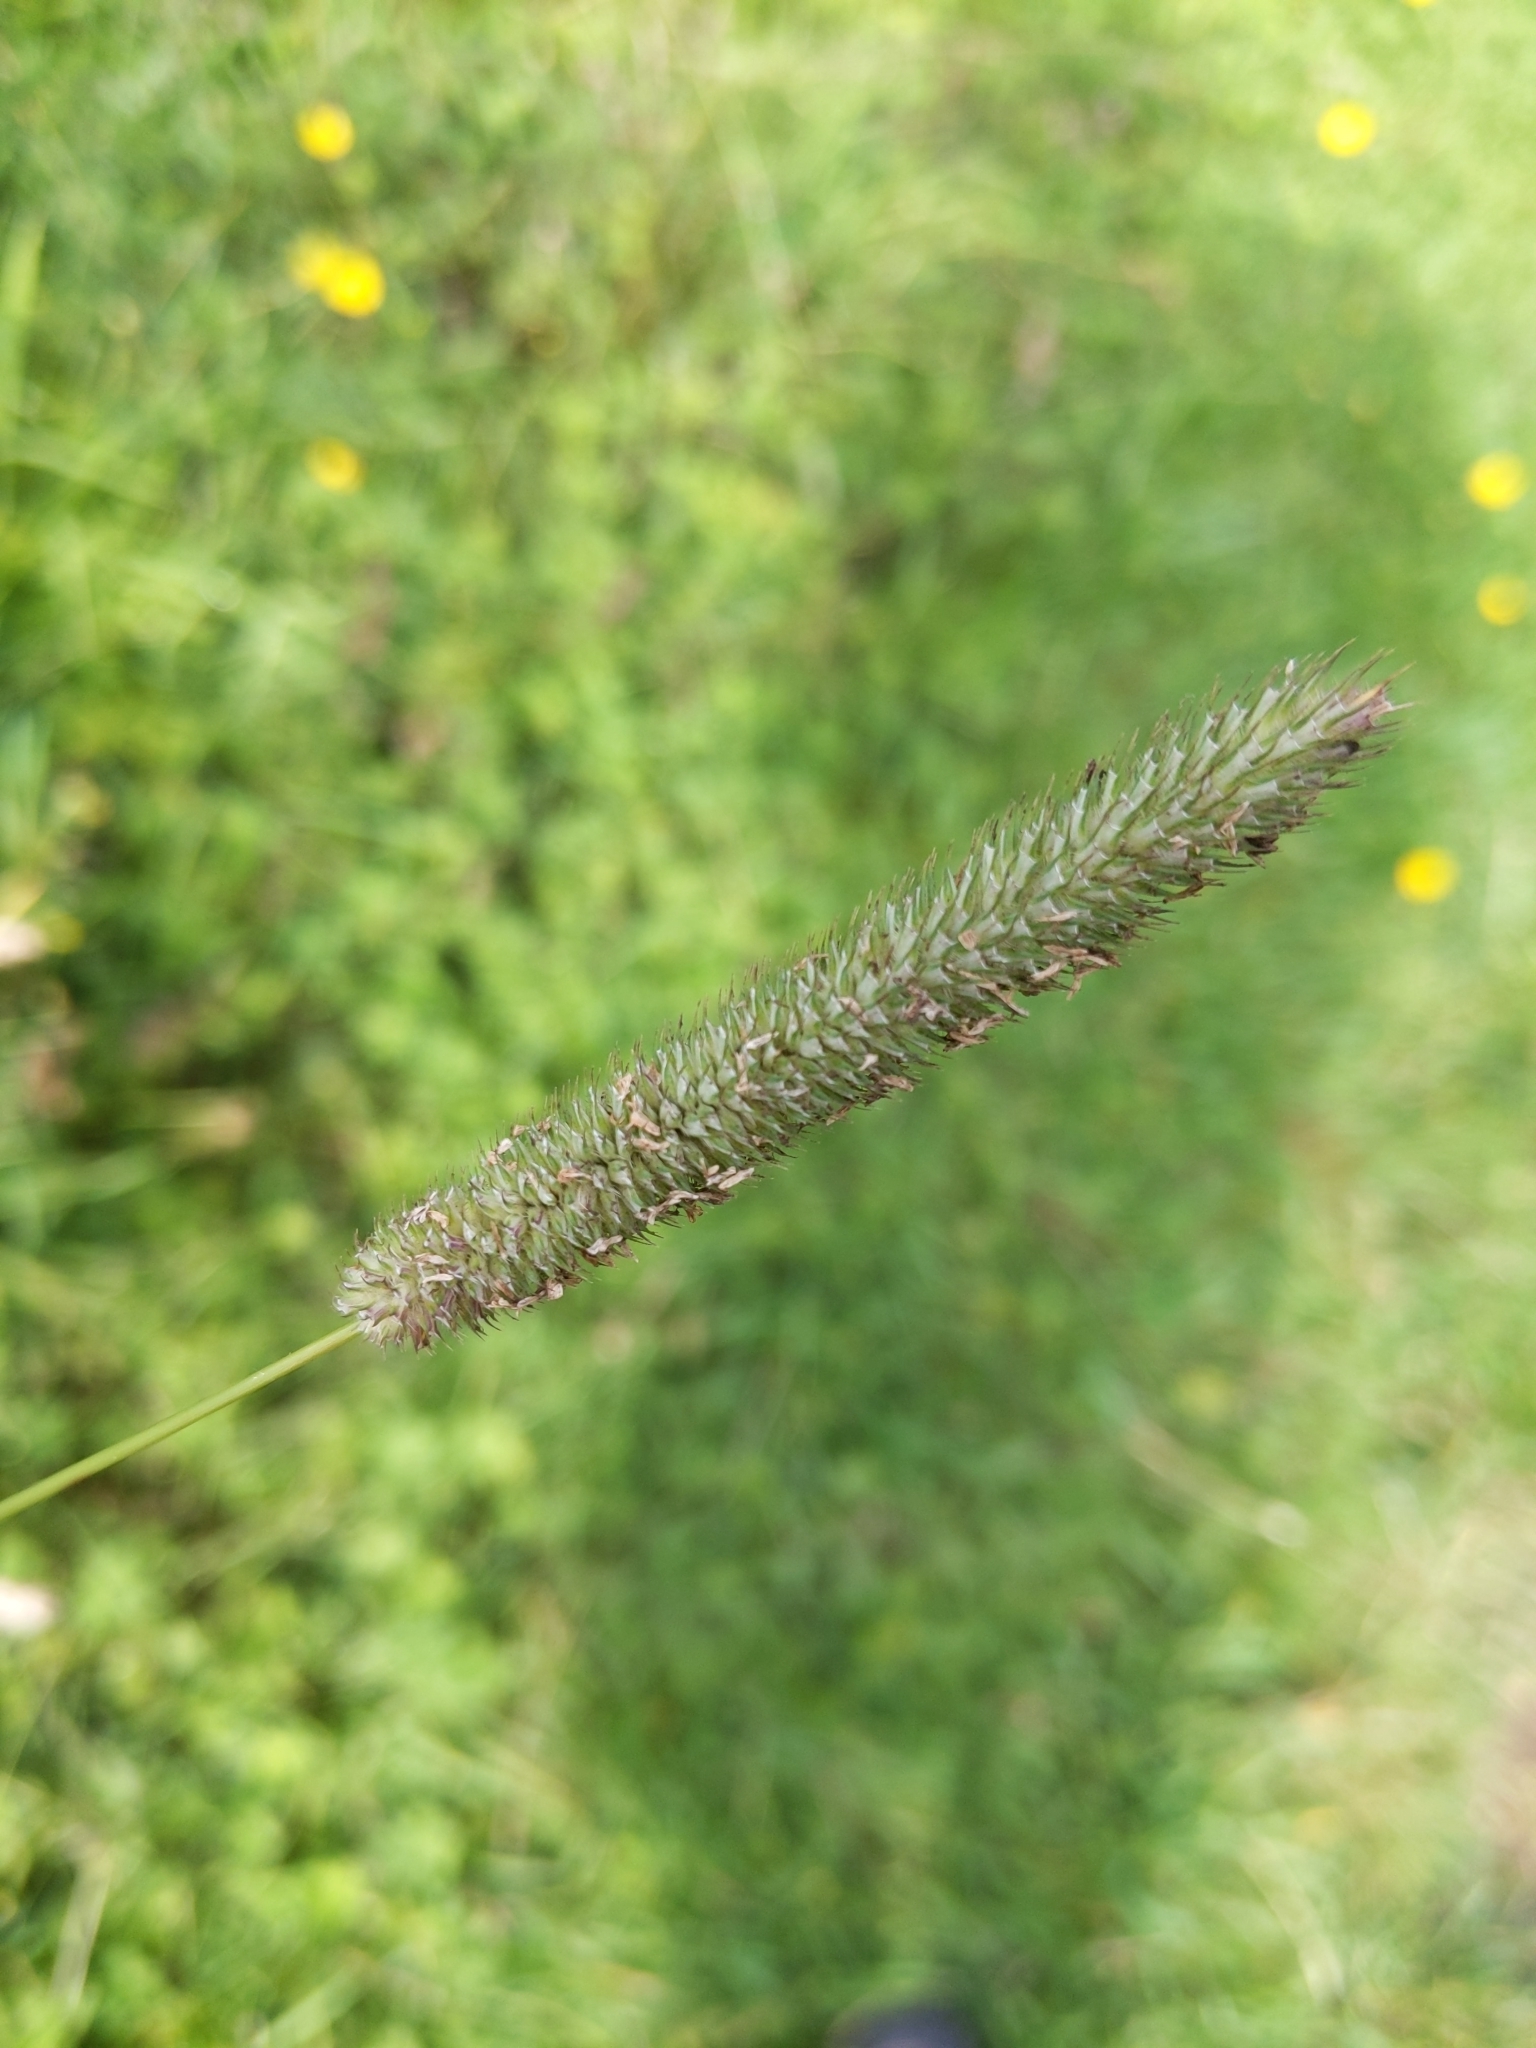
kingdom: Plantae
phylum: Tracheophyta
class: Liliopsida
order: Poales
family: Poaceae
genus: Phleum
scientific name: Phleum pratense
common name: Timothy grass
